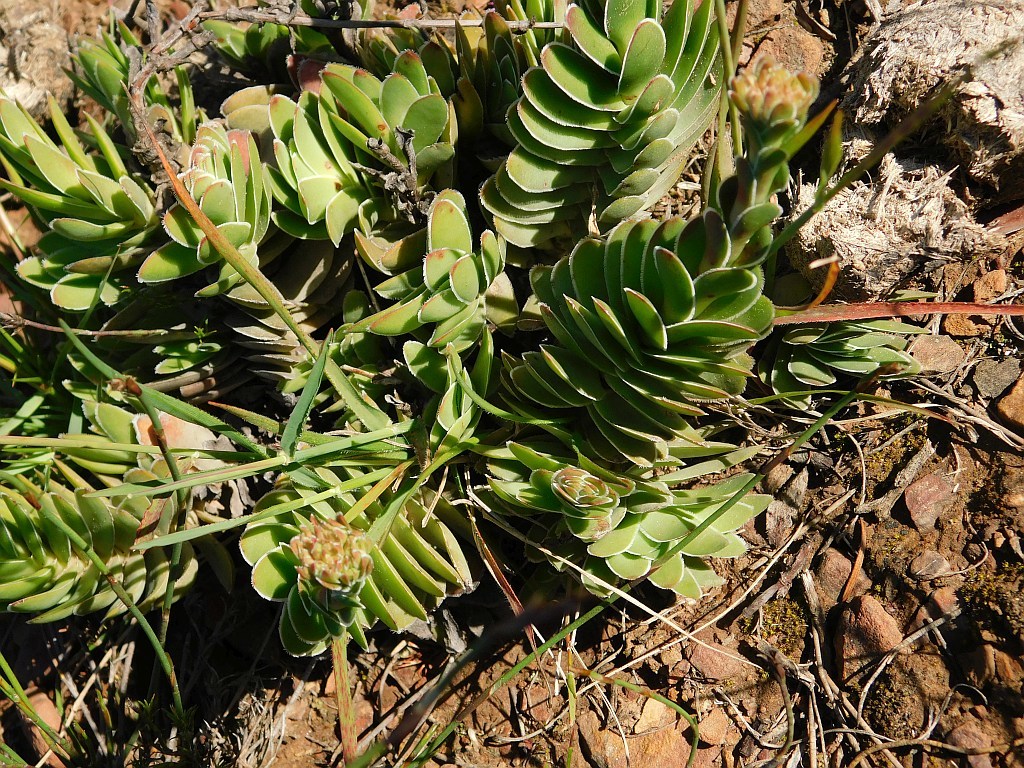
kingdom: Plantae
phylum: Tracheophyta
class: Magnoliopsida
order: Saxifragales
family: Crassulaceae
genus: Crassula
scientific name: Crassula ciliata
